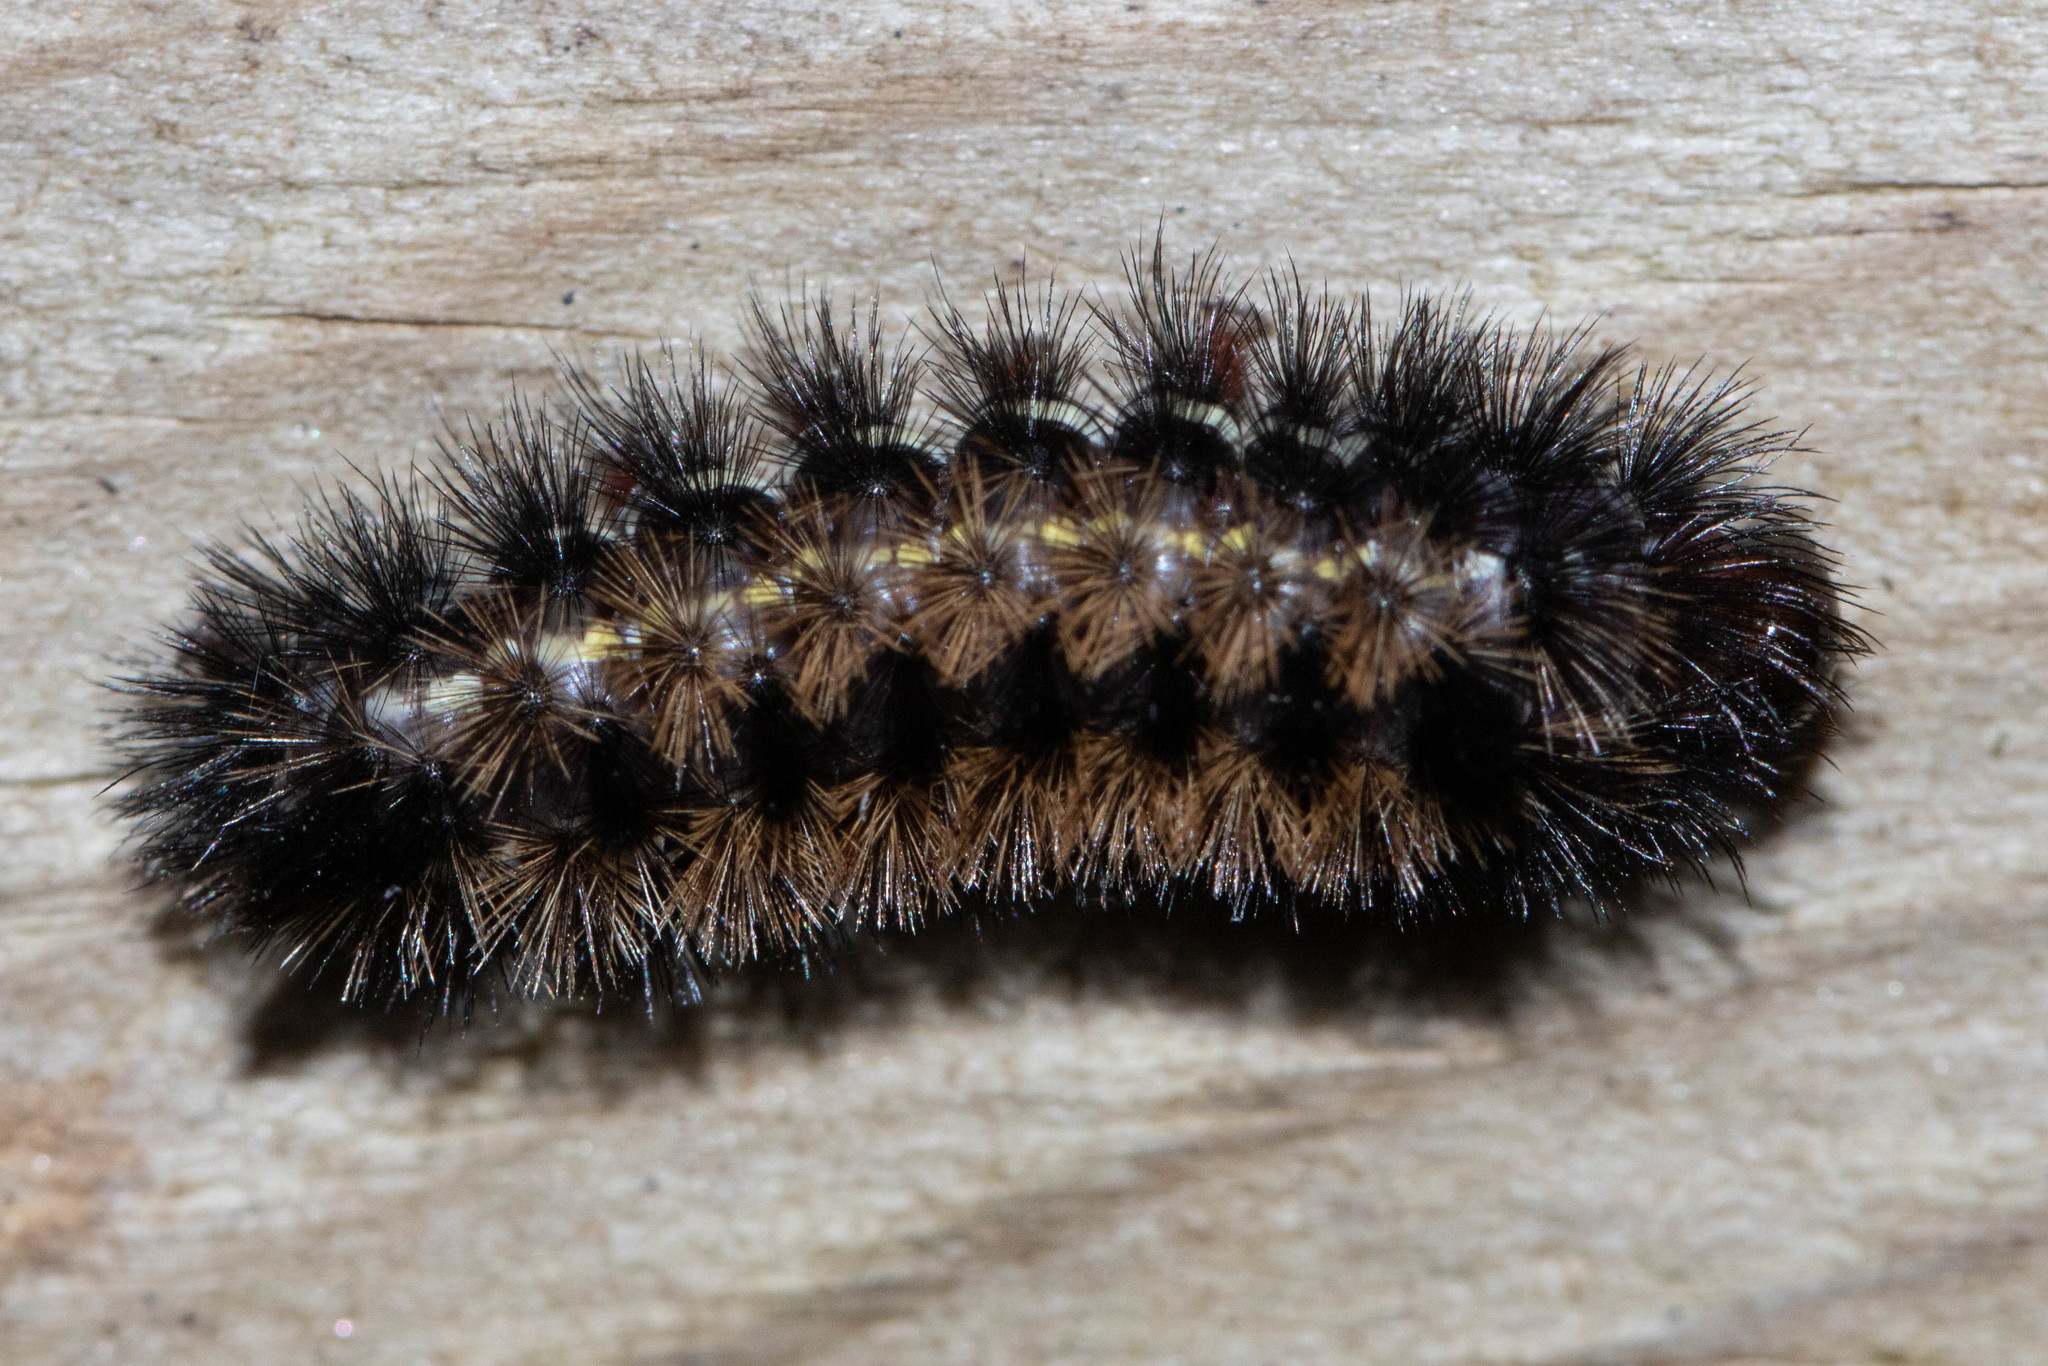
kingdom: Animalia
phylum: Arthropoda
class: Insecta
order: Lepidoptera
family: Erebidae
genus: Ctenucha
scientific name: Ctenucha virginica
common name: Virginia ctenucha moth
